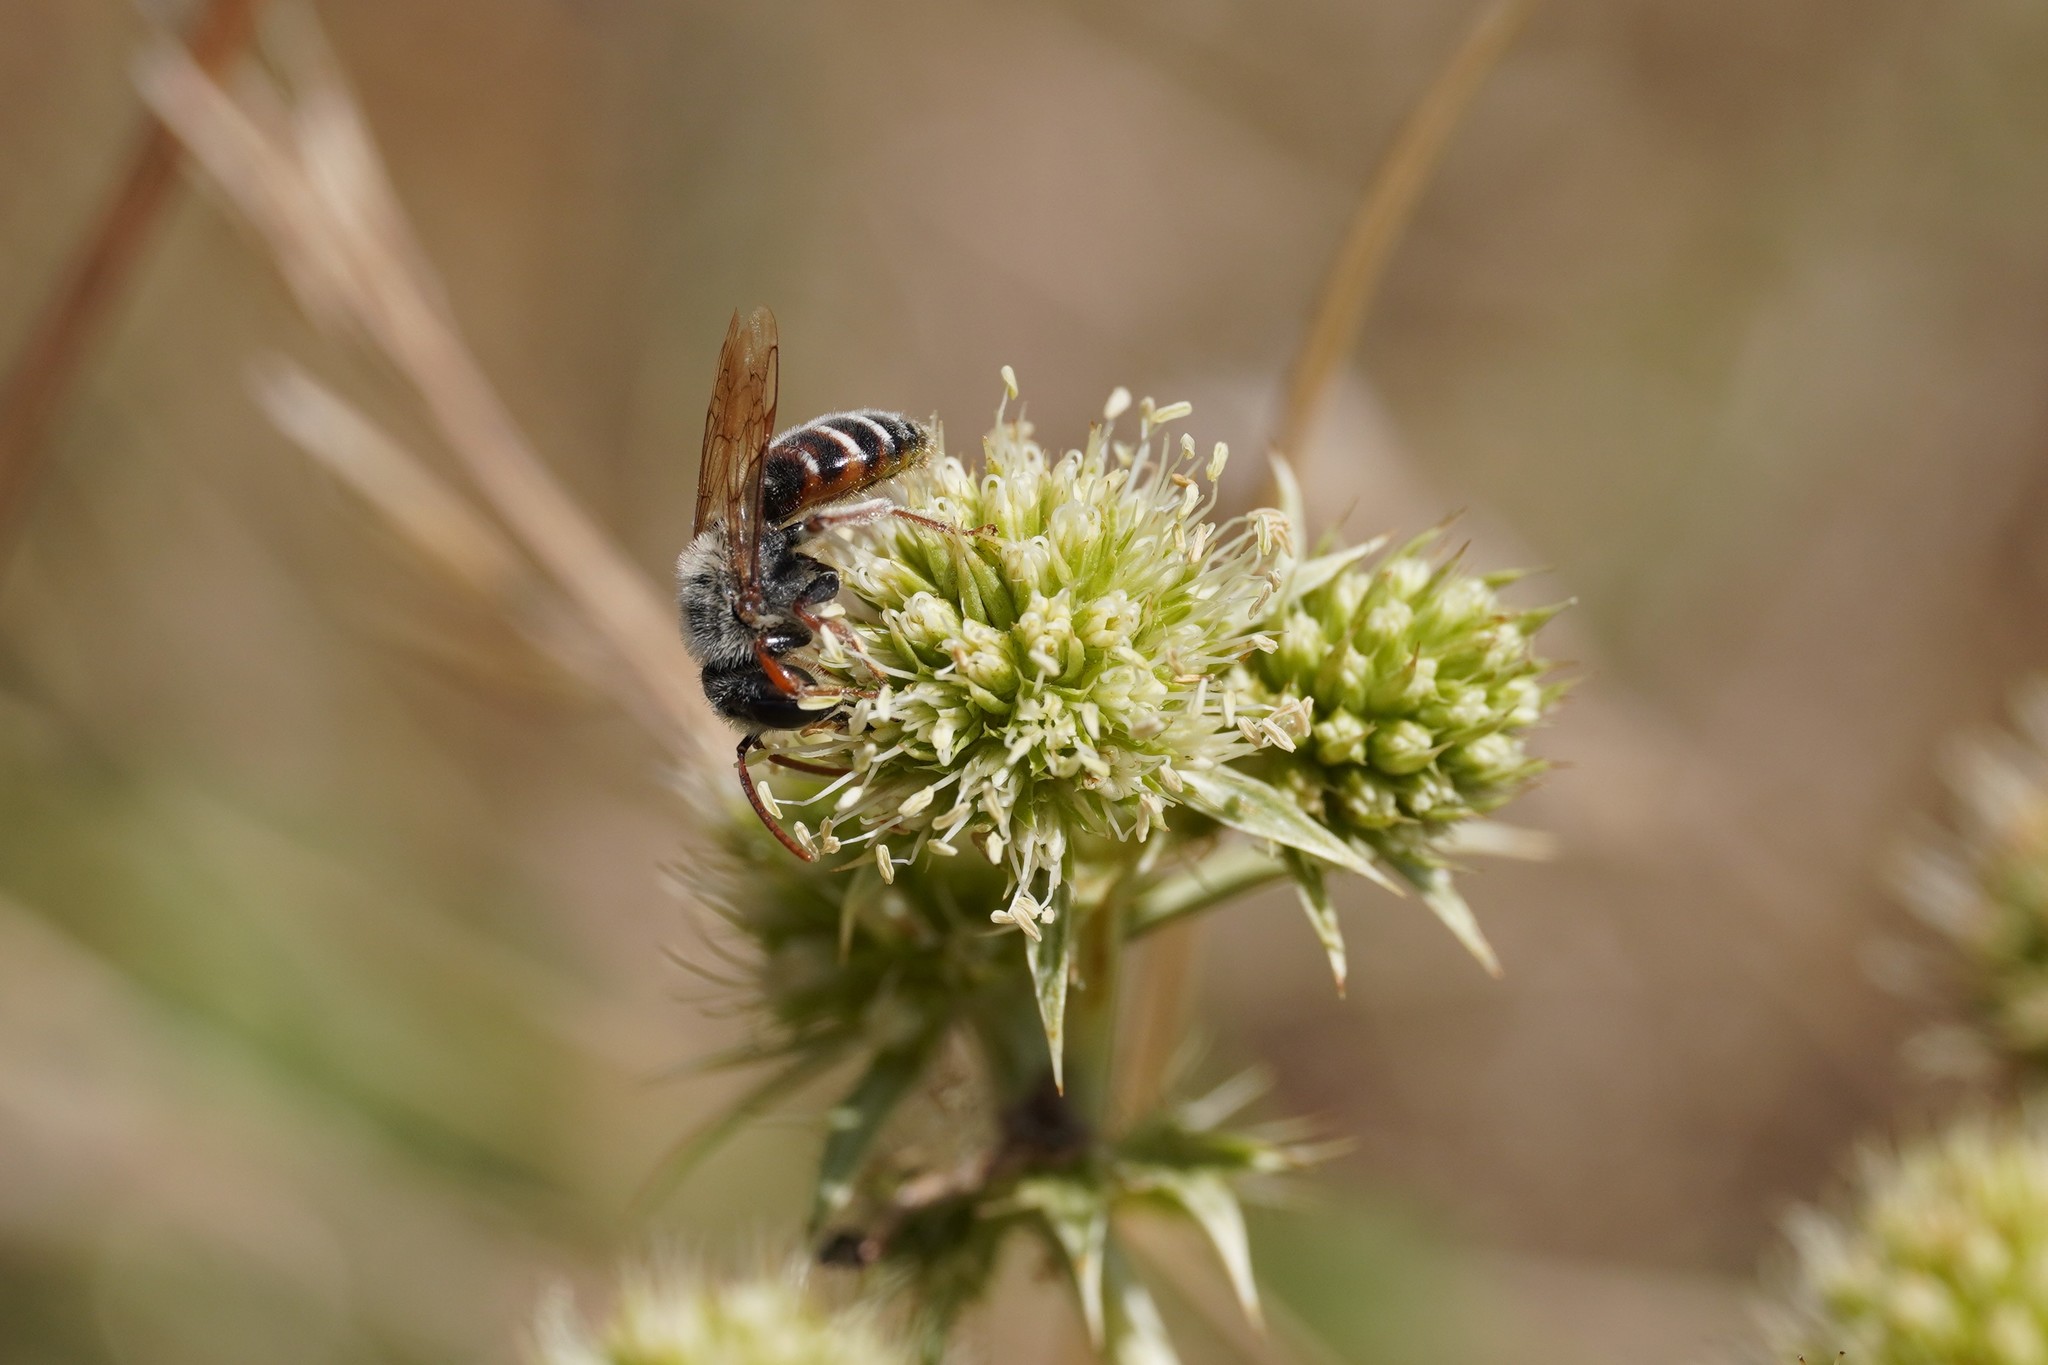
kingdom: Animalia
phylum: Arthropoda
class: Insecta
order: Hymenoptera
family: Andrenidae
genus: Andrena
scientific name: Andrena variabilis
